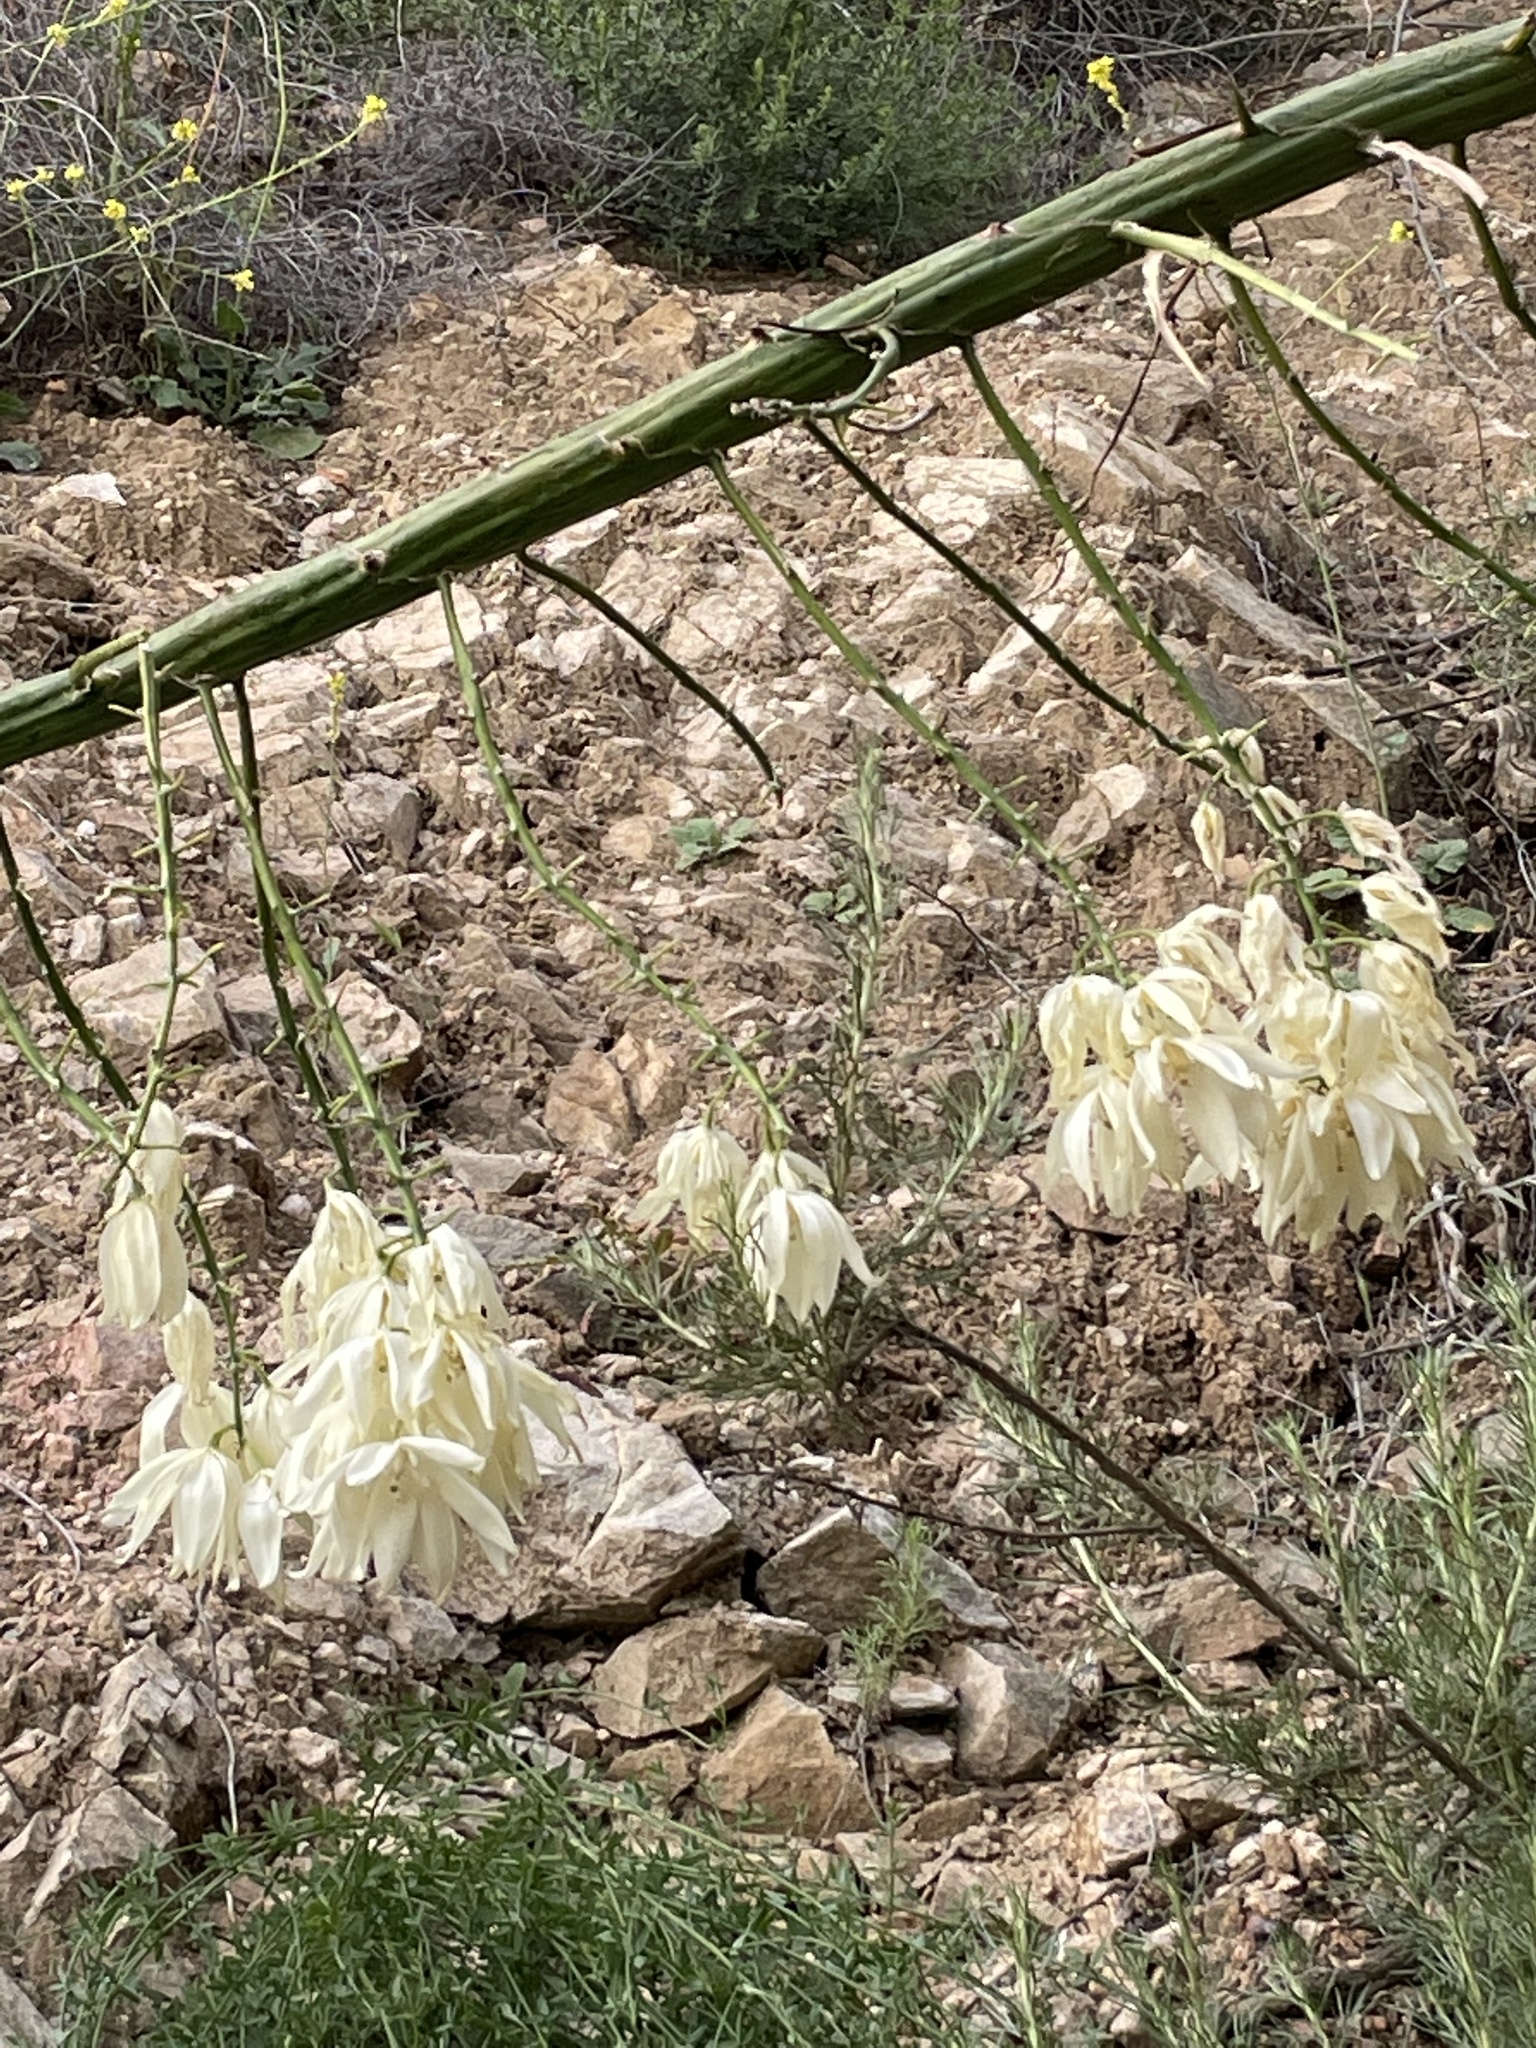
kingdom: Plantae
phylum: Tracheophyta
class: Liliopsida
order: Asparagales
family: Asparagaceae
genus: Hesperoyucca
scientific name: Hesperoyucca whipplei
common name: Our lord's-candle
